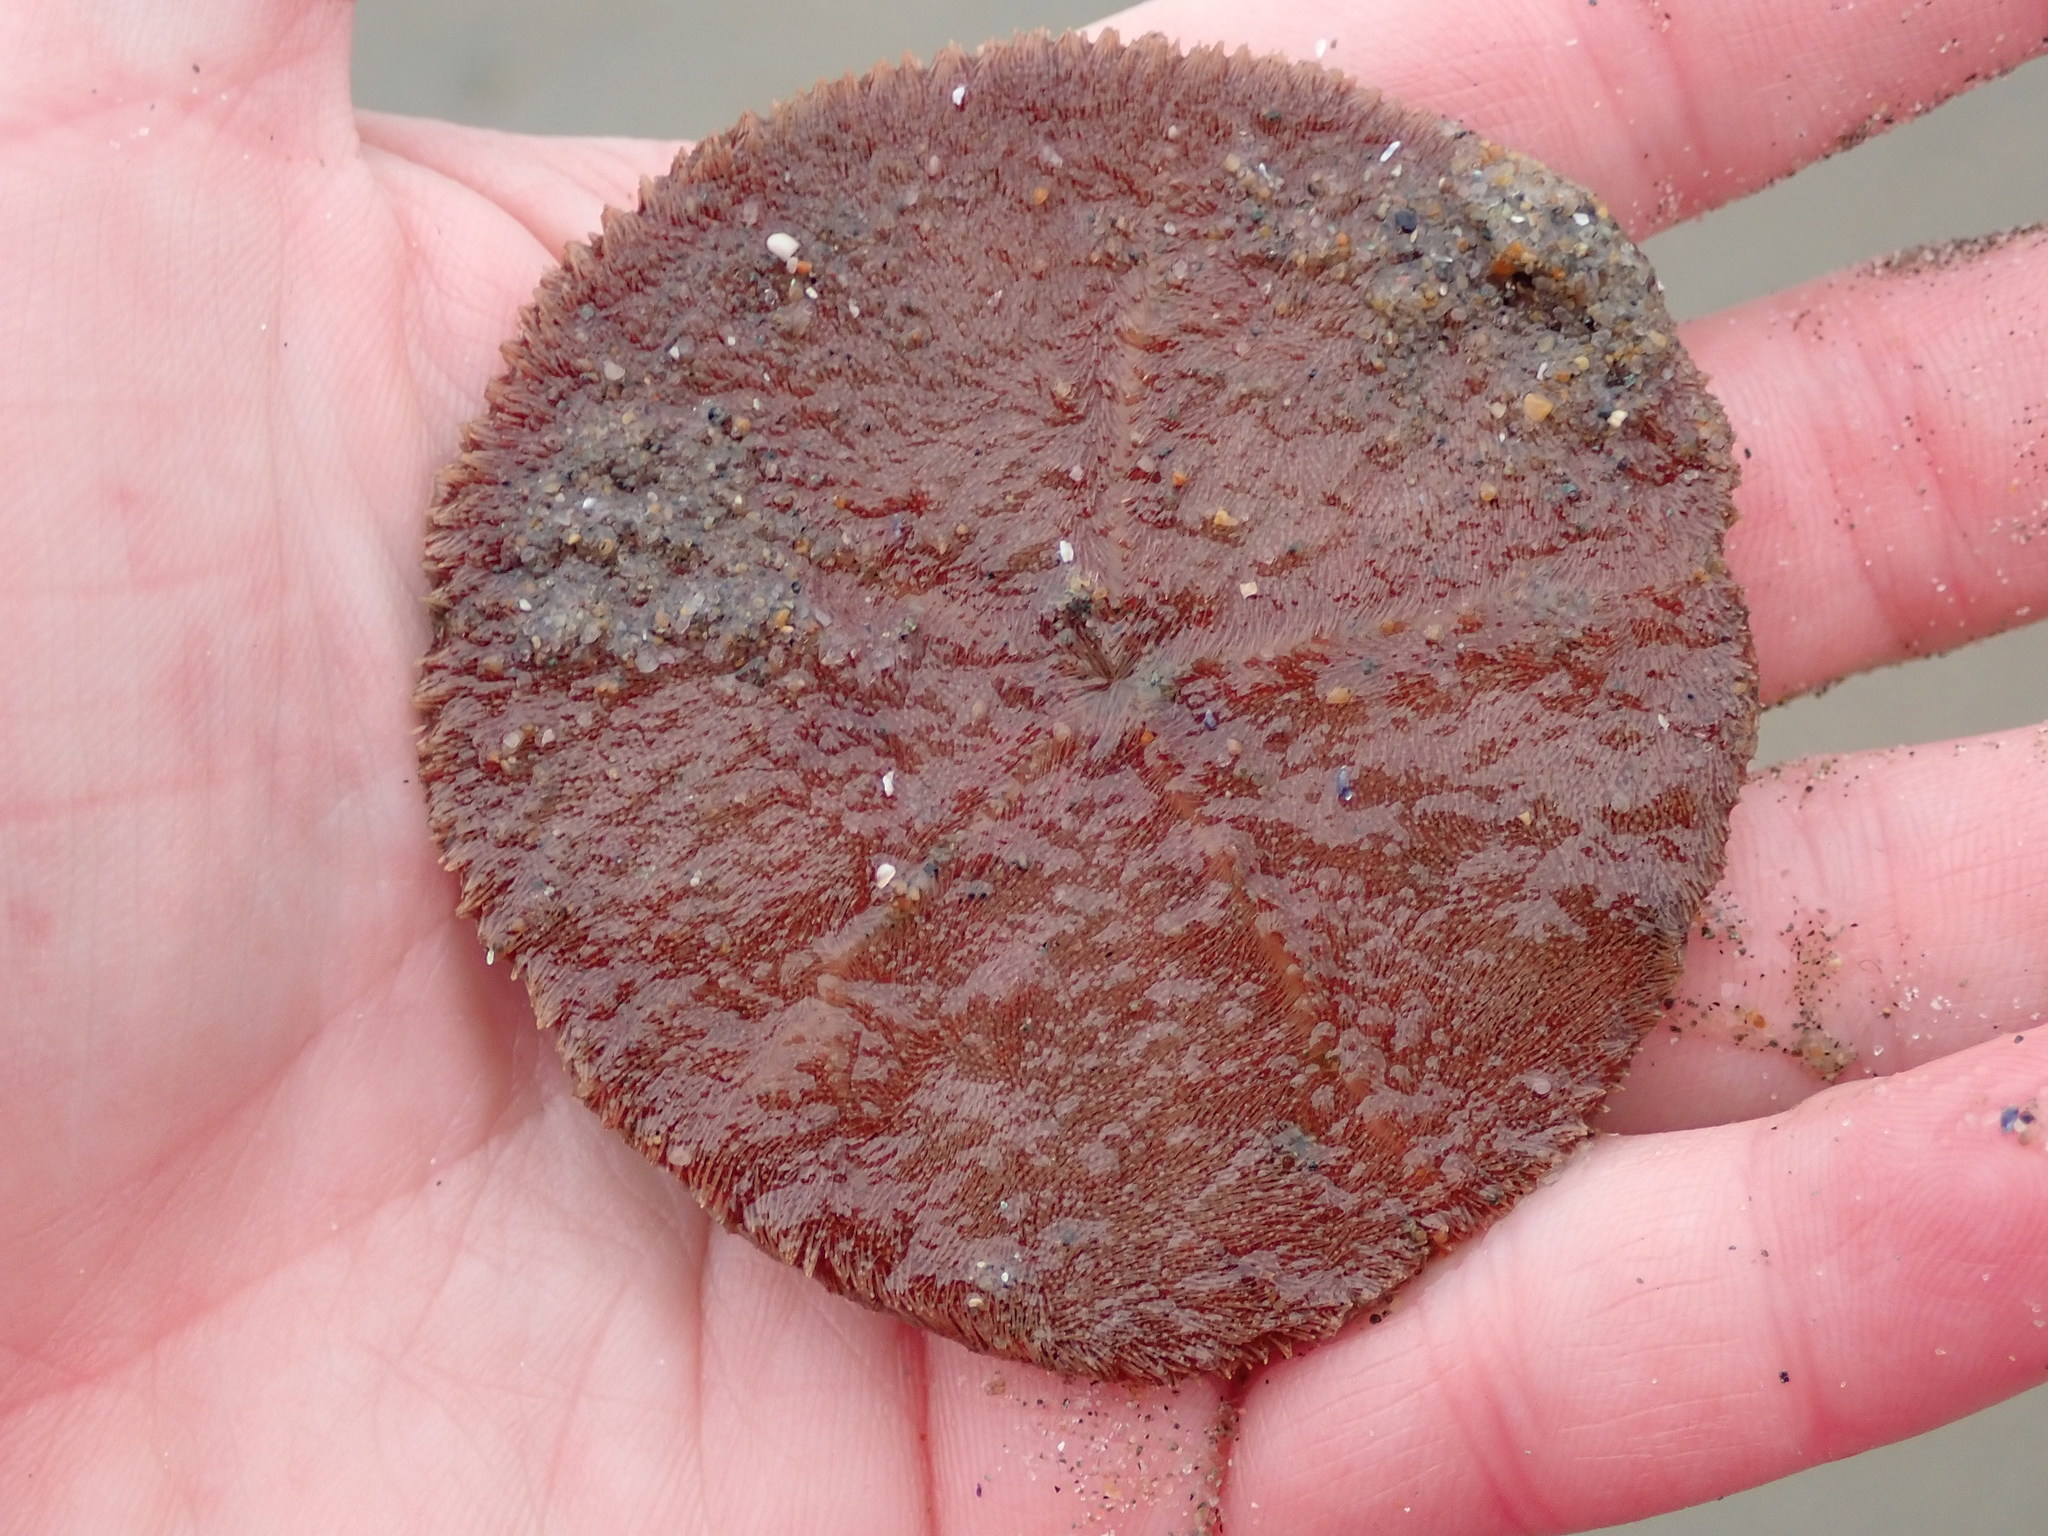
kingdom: Animalia
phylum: Echinodermata
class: Echinoidea
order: Echinolampadacea
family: Echinarachniidae
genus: Echinarachnius
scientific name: Echinarachnius parma
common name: Common sand dollar
